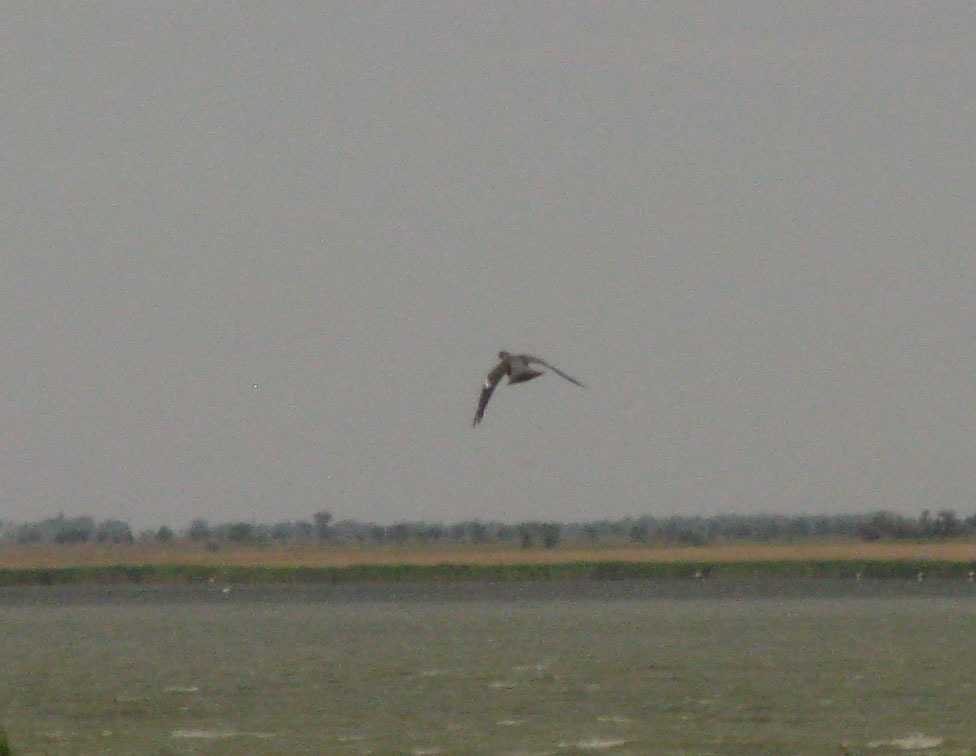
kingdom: Animalia
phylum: Chordata
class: Aves
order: Columbiformes
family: Columbidae
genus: Columba
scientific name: Columba palumbus
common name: Common wood pigeon
